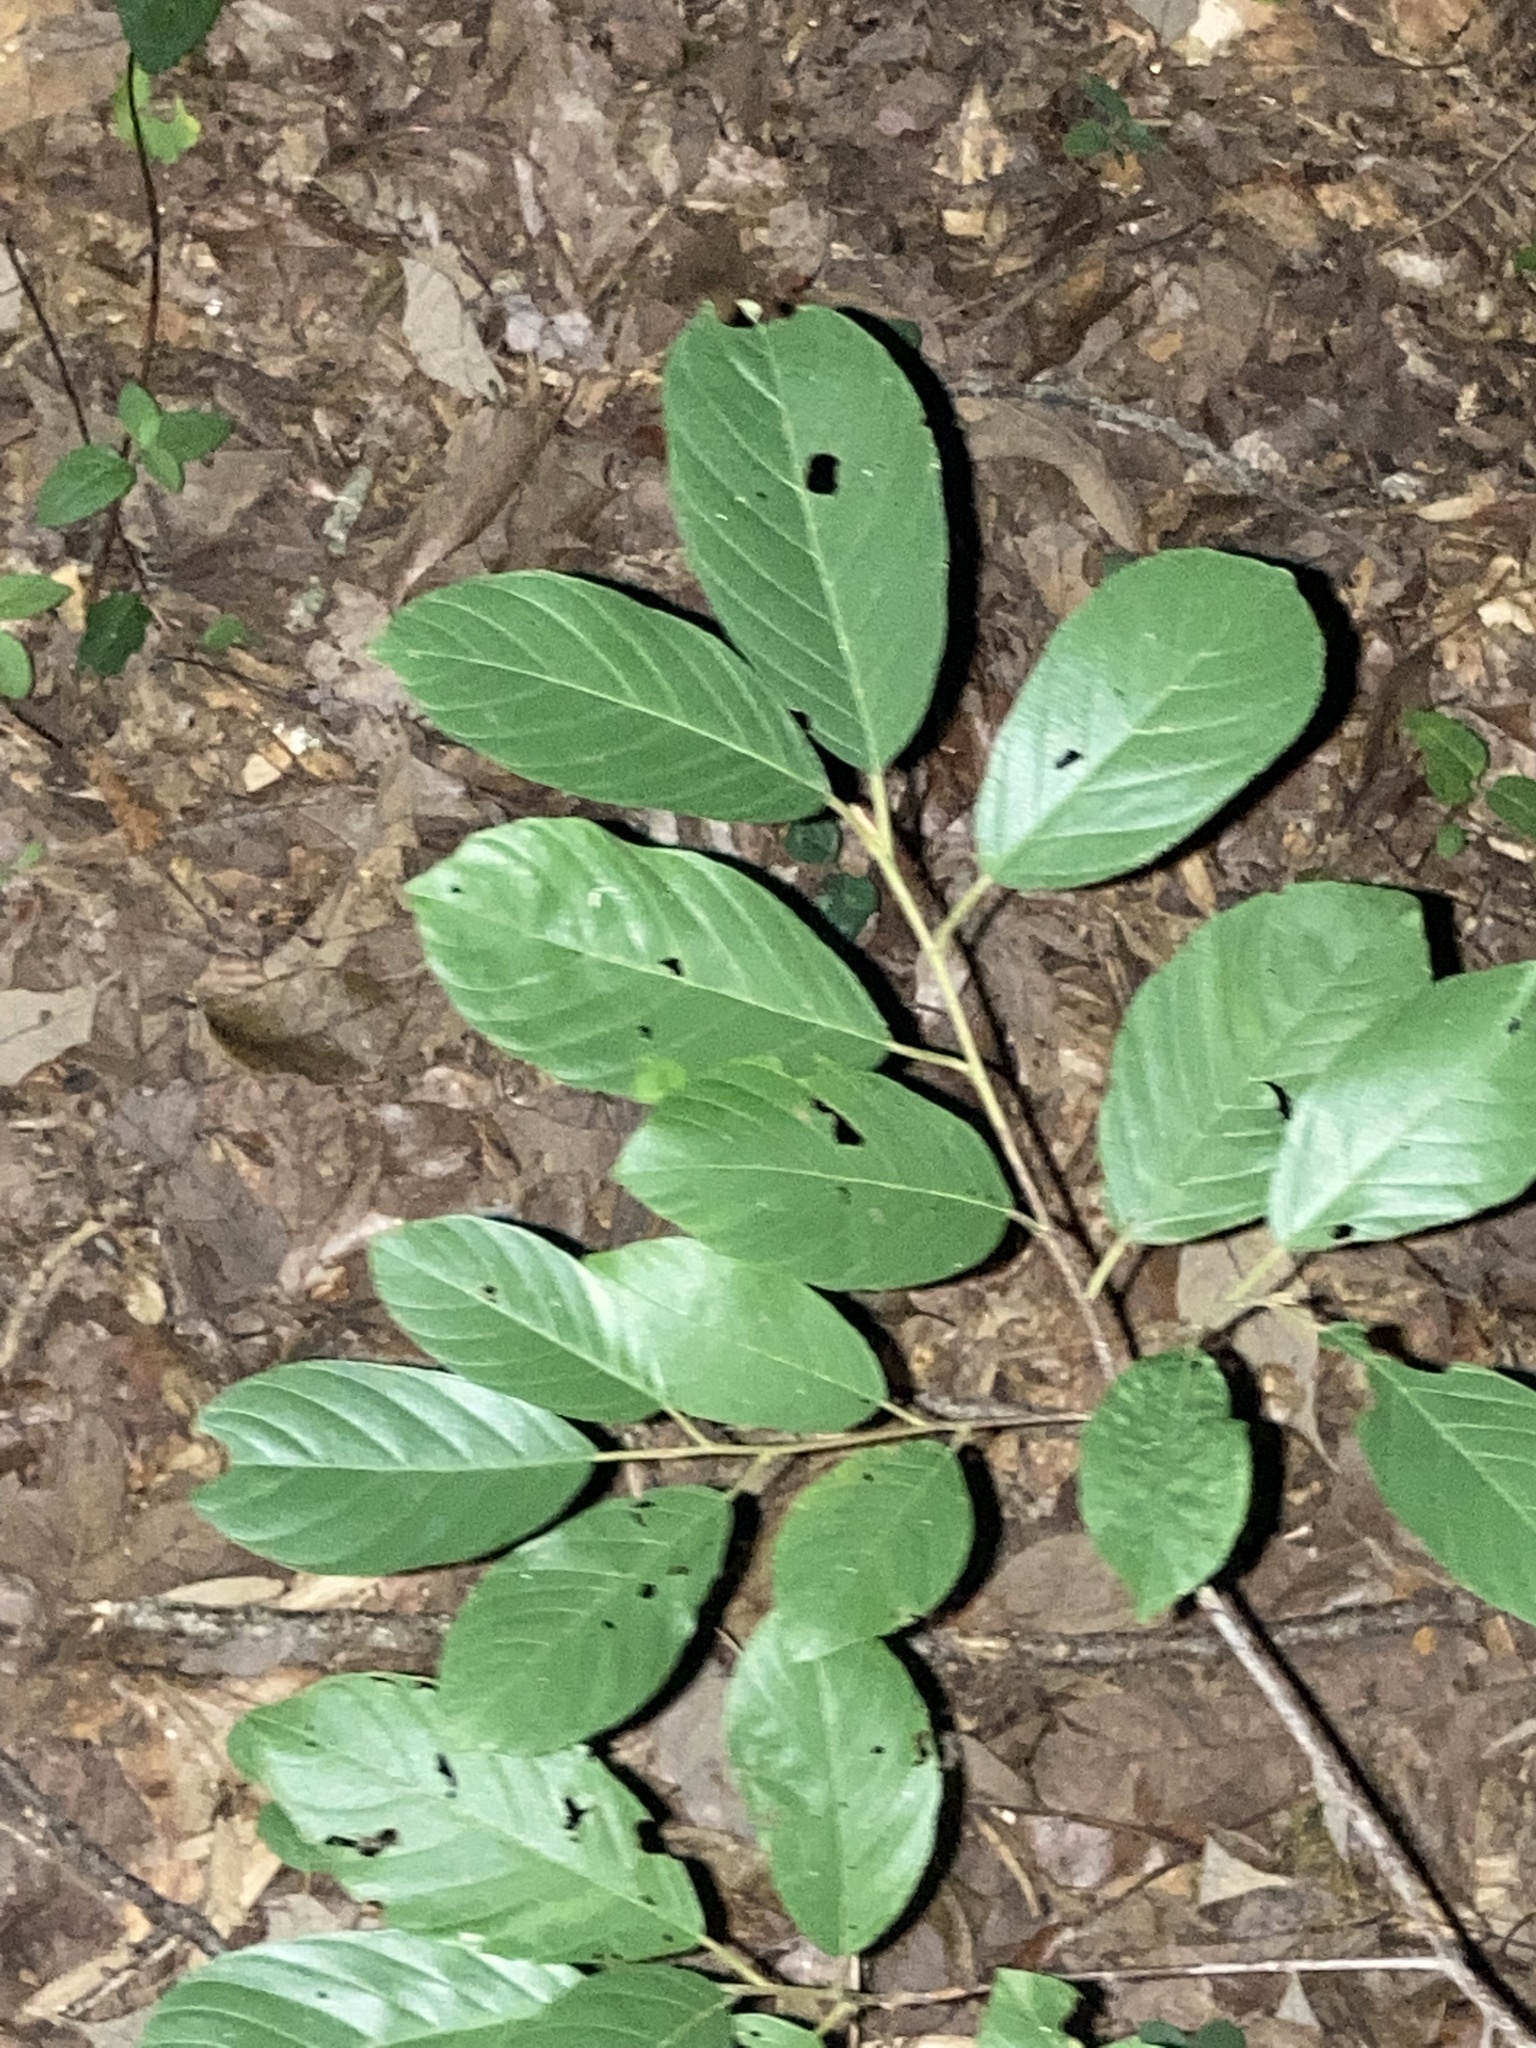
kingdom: Plantae
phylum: Tracheophyta
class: Magnoliopsida
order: Rosales
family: Rhamnaceae
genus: Frangula
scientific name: Frangula caroliniana
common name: Carolina buckthorn
